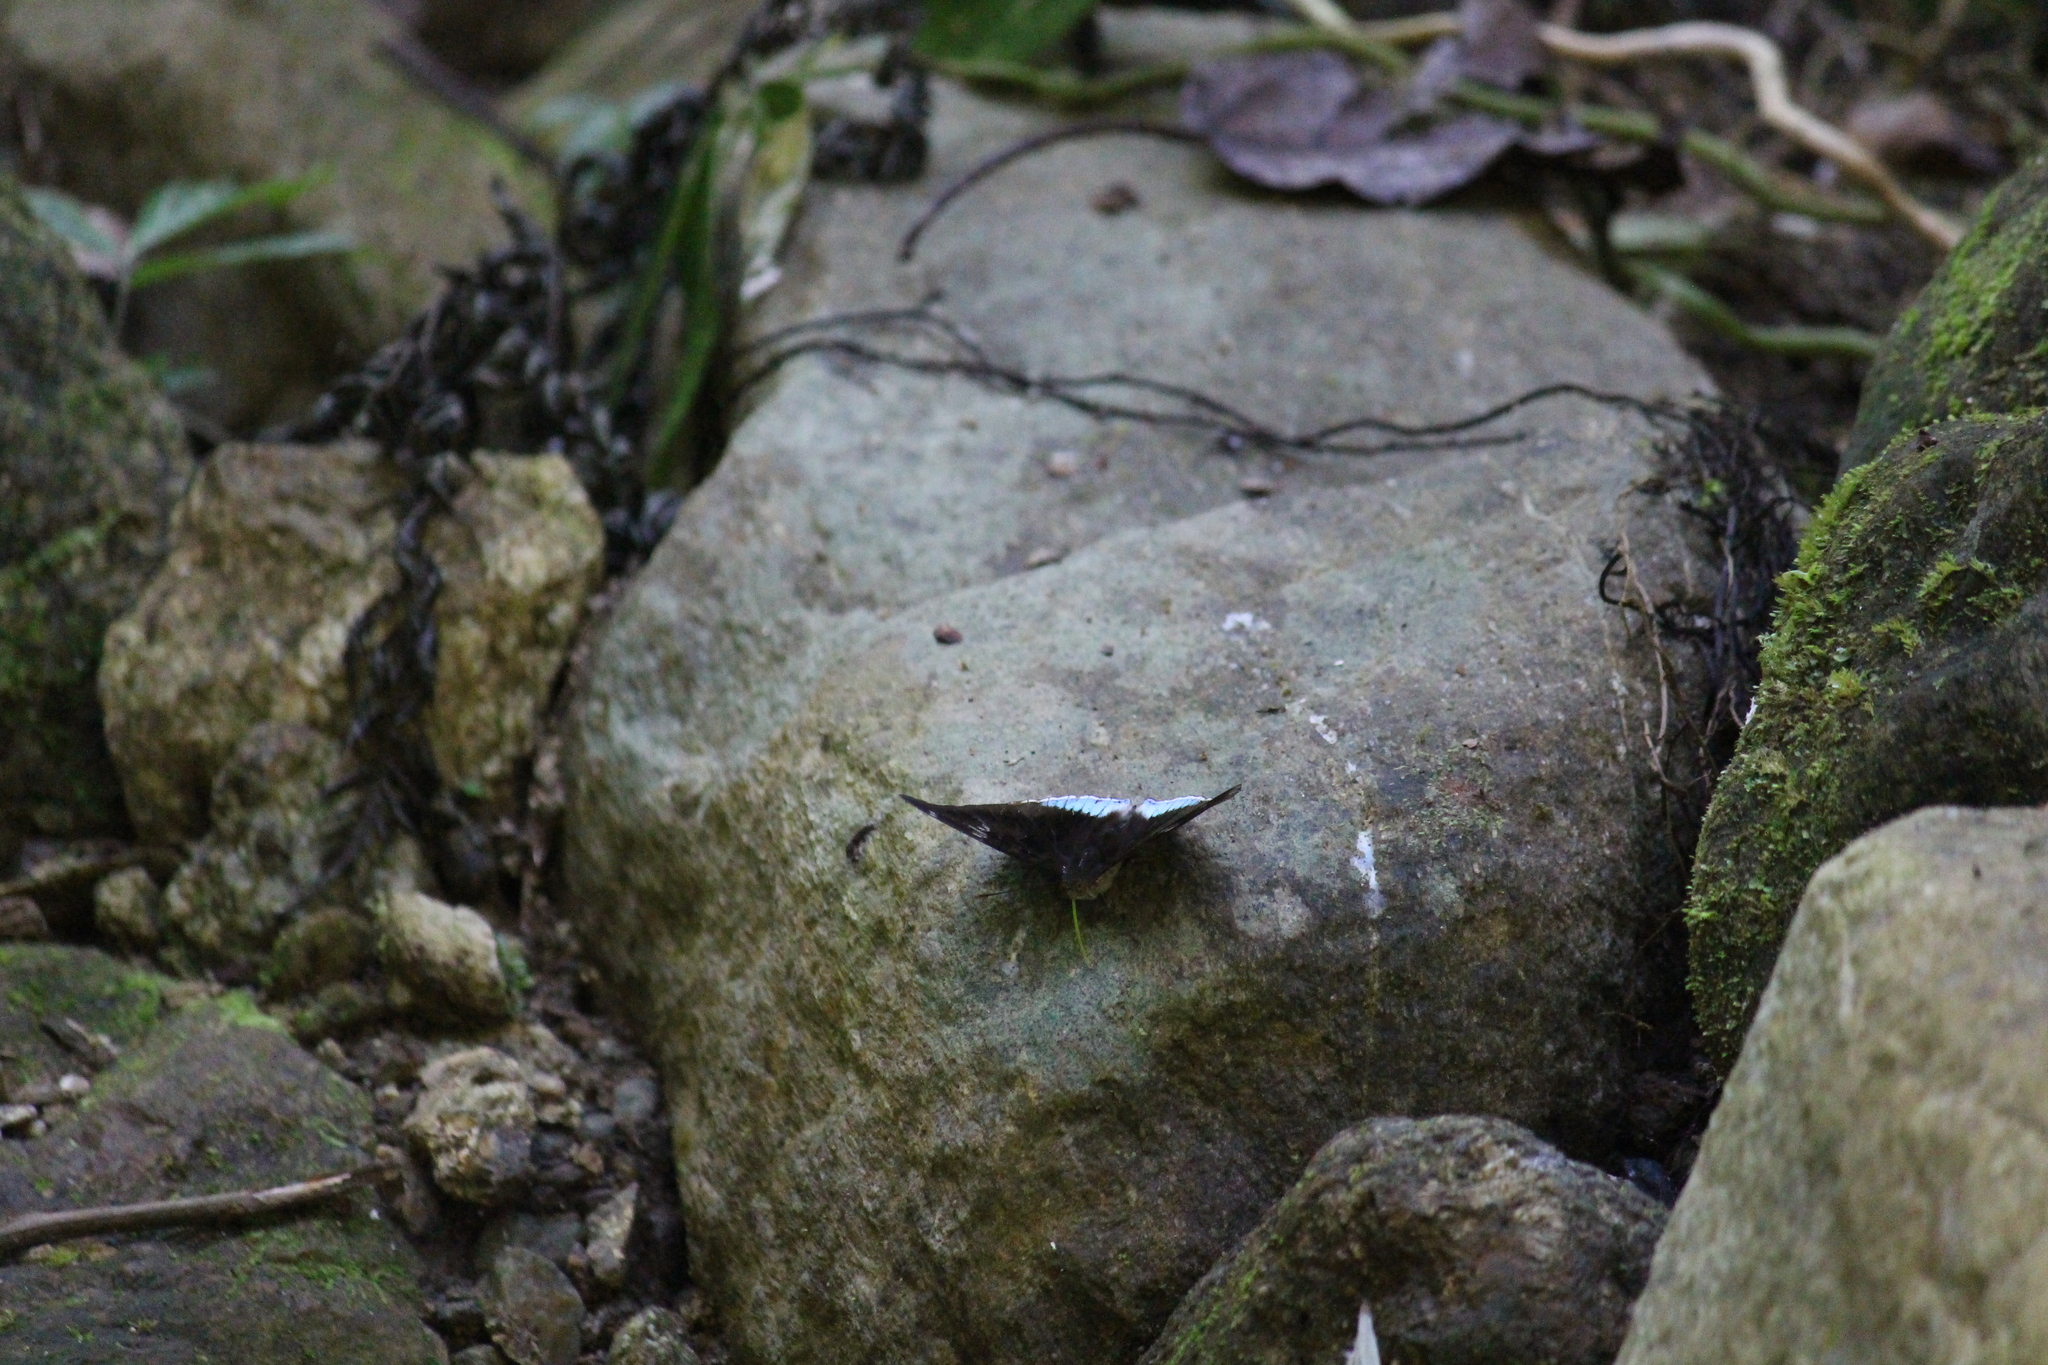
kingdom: Animalia
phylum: Arthropoda
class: Insecta
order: Lepidoptera
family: Nymphalidae
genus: Tanaecia
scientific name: Tanaecia lepidea
